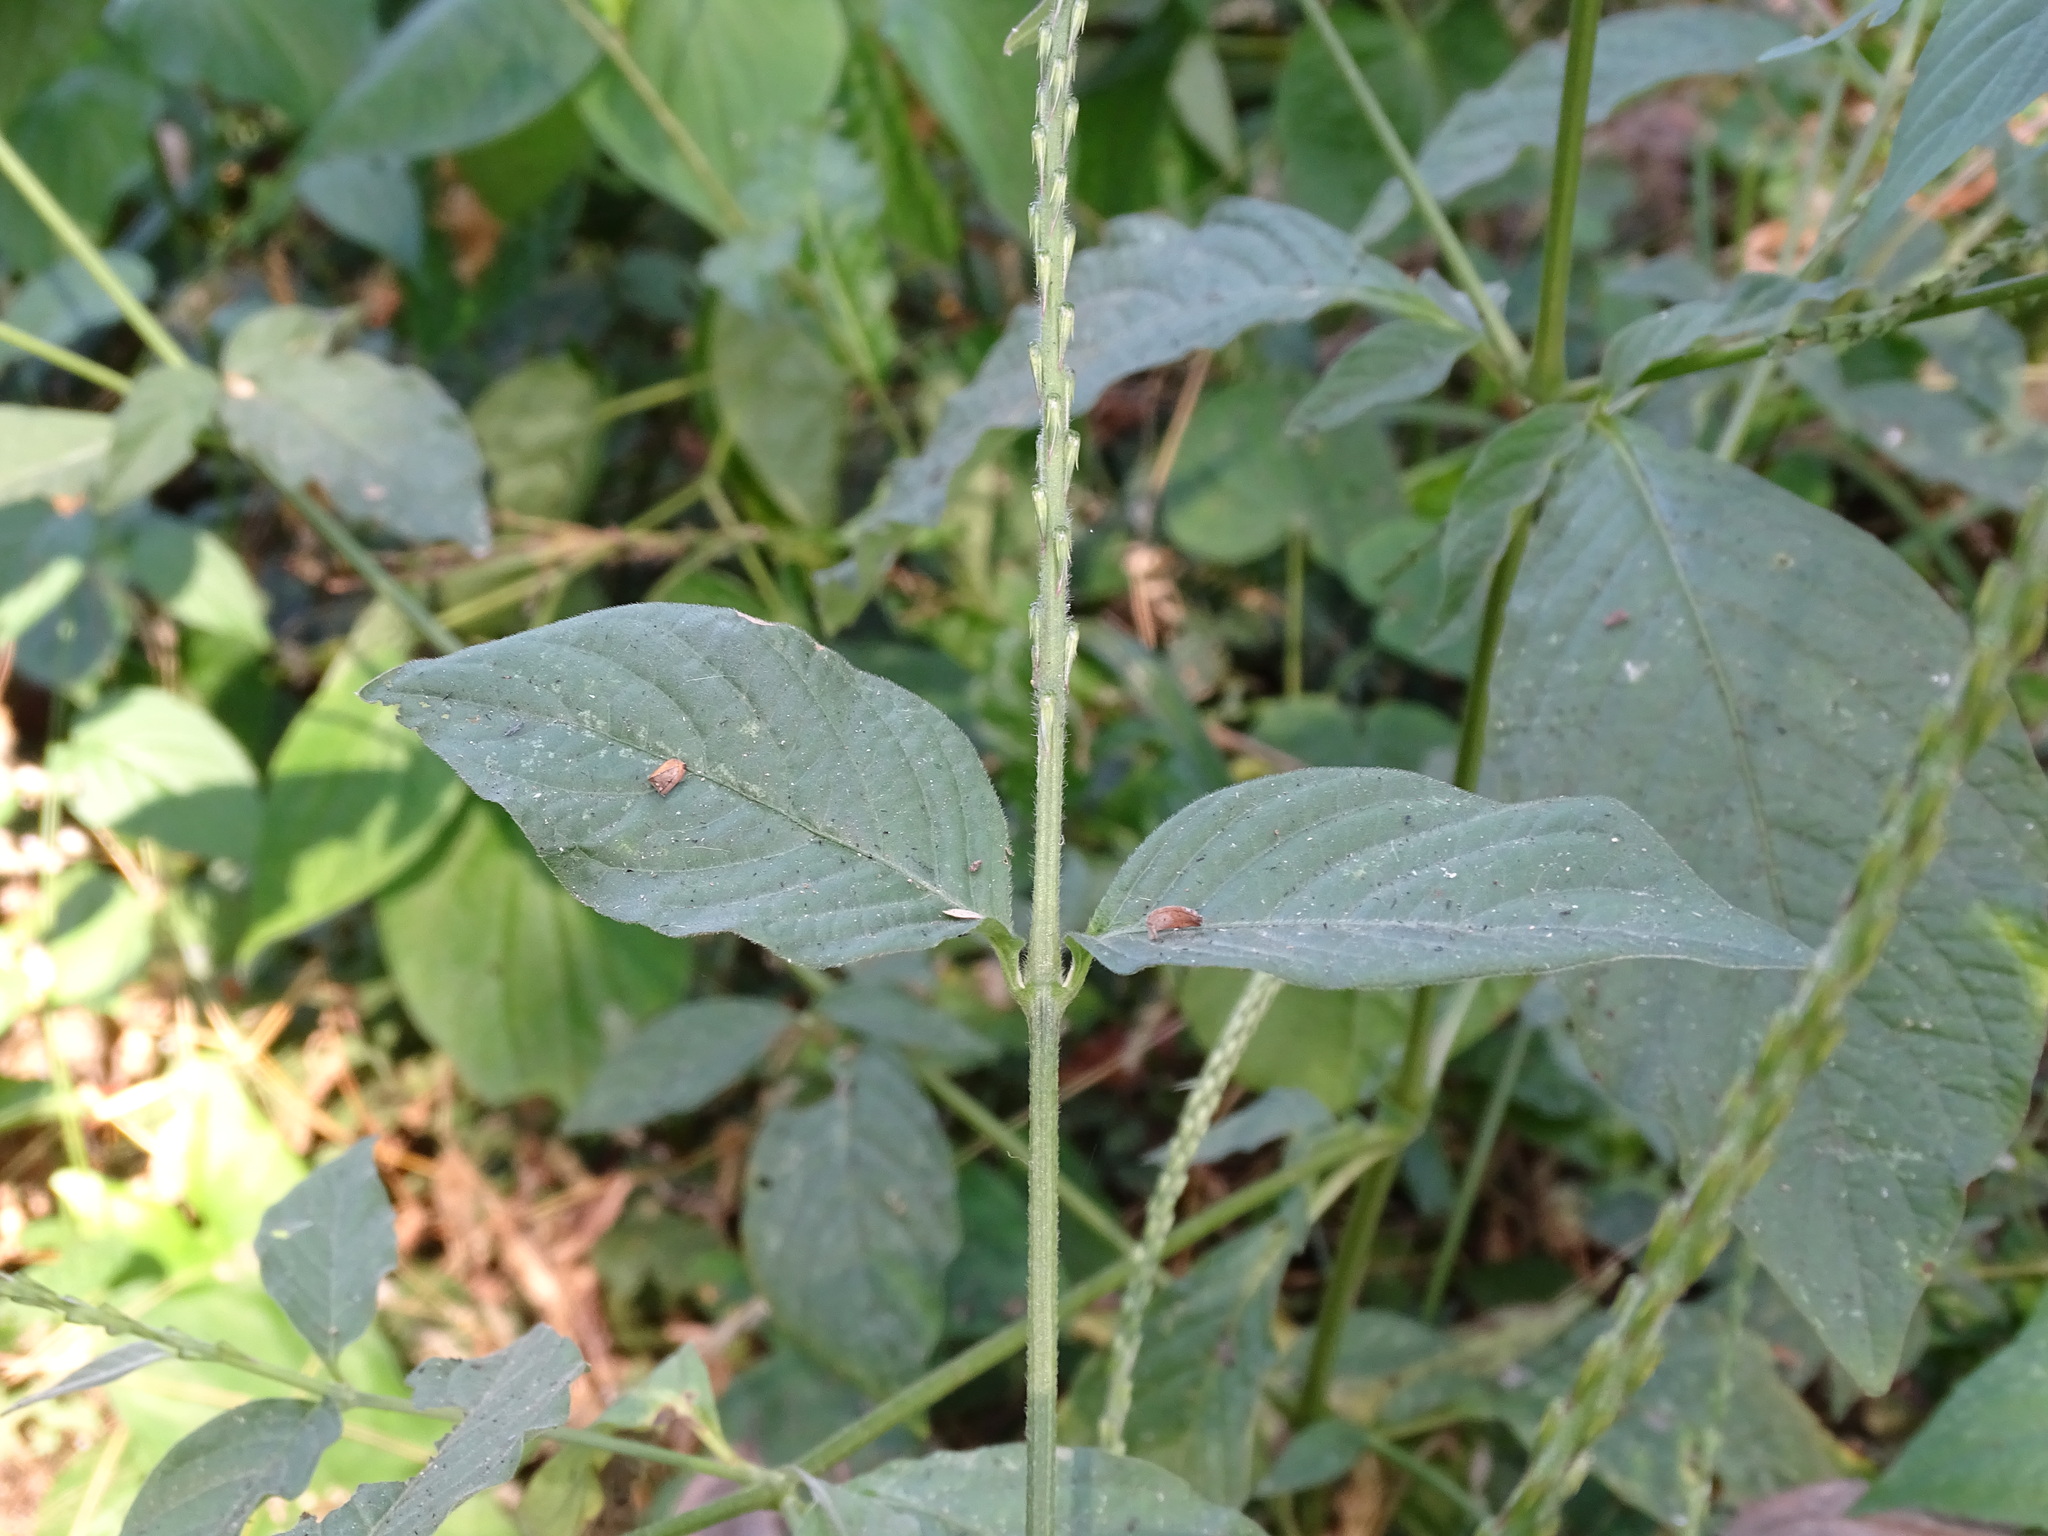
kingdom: Plantae
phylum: Tracheophyta
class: Magnoliopsida
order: Caryophyllales
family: Amaranthaceae
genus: Achyranthes
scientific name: Achyranthes aspera
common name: Devil's horsewhip
